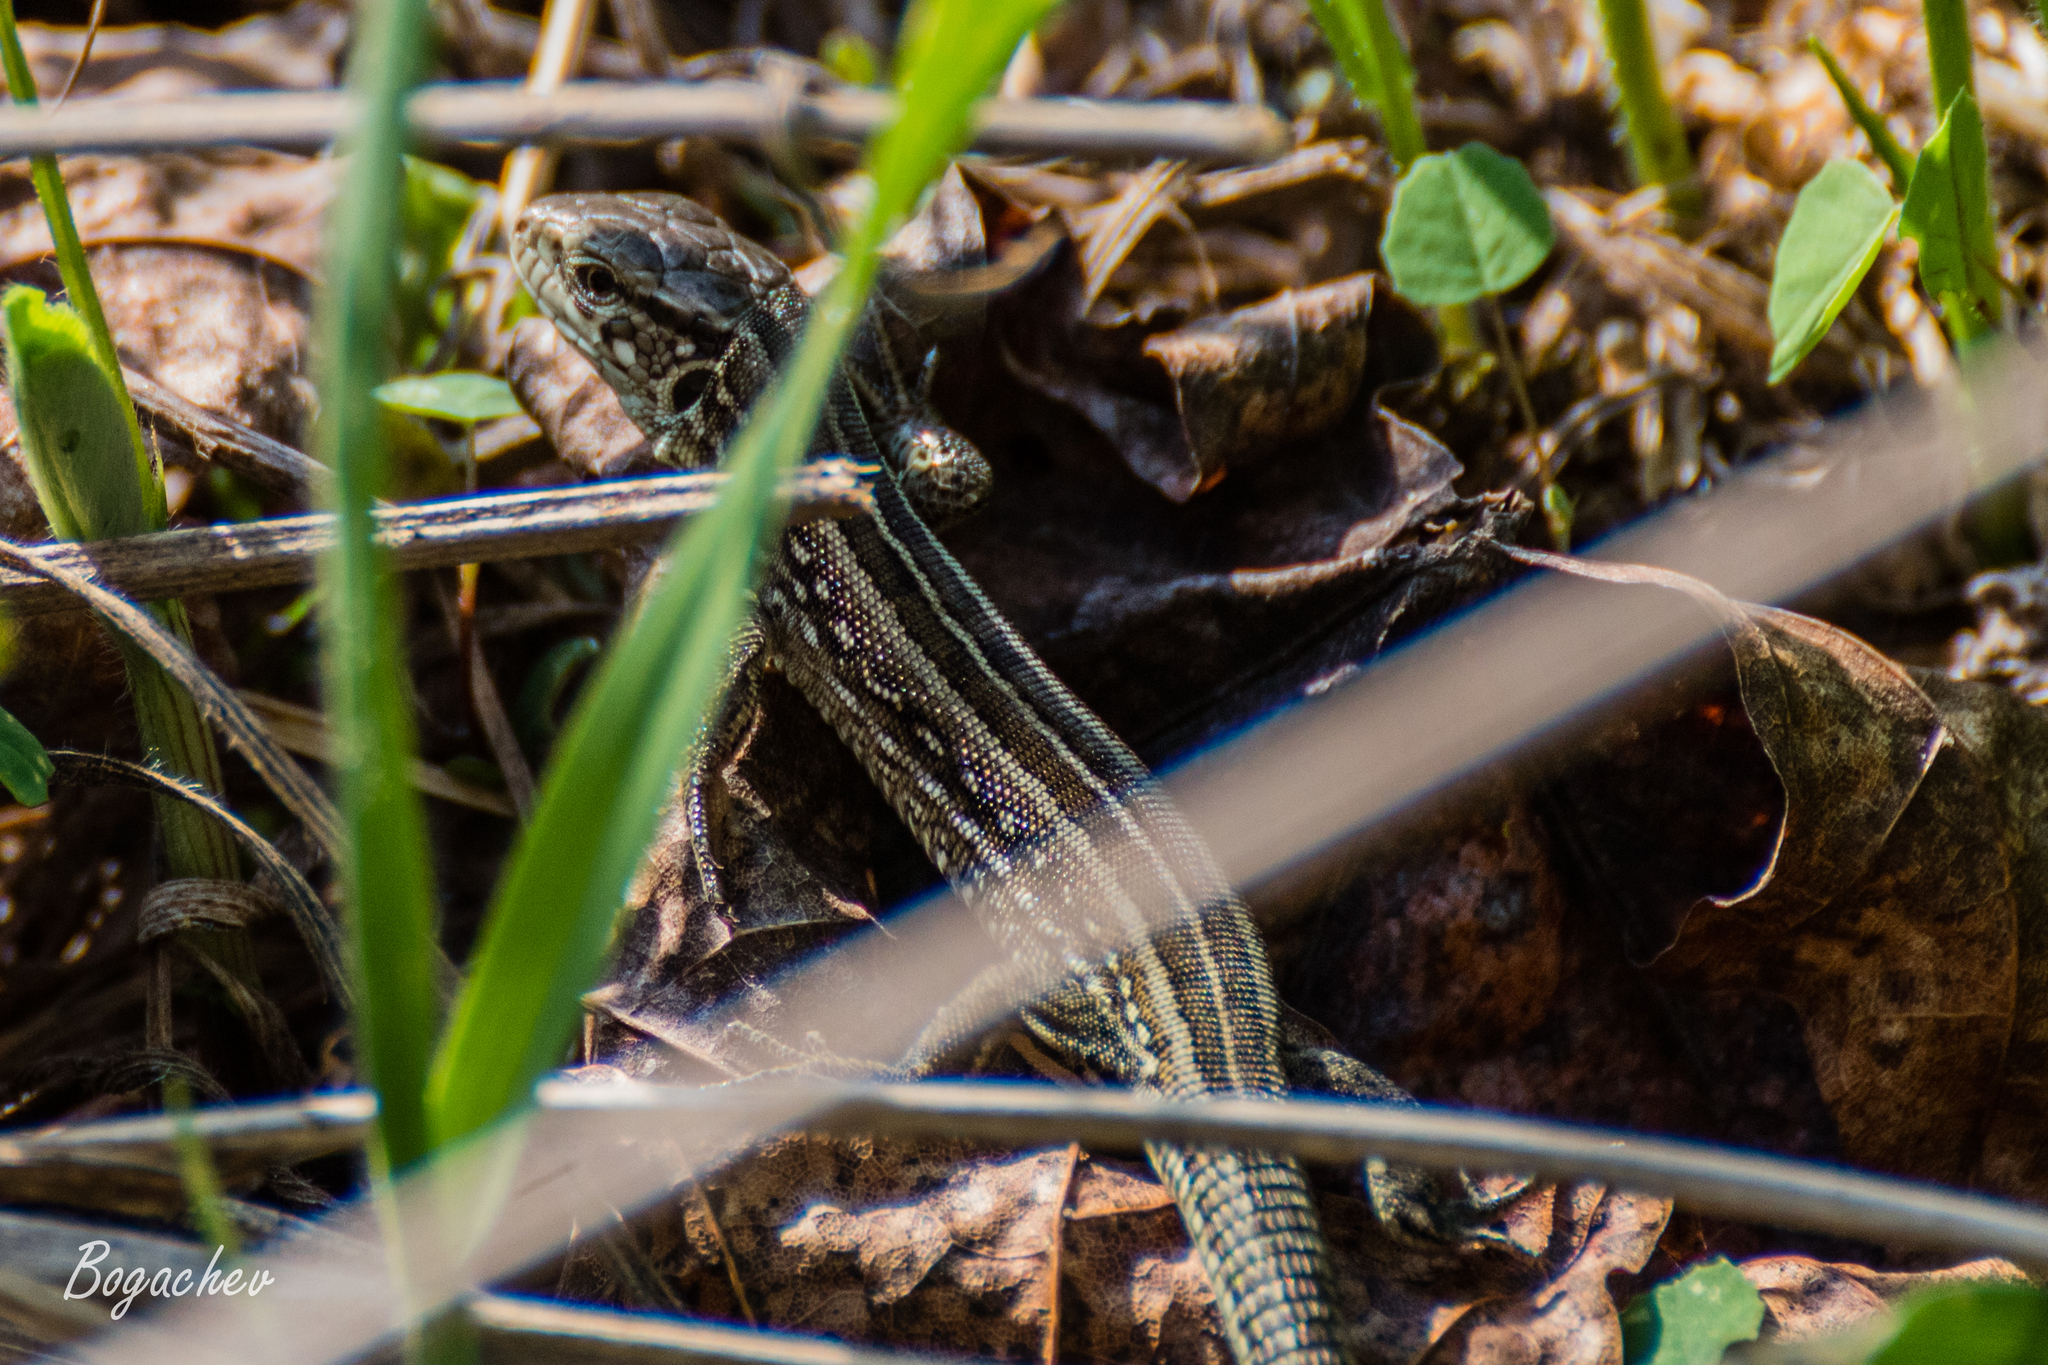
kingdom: Animalia
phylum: Chordata
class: Squamata
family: Lacertidae
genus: Lacerta
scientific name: Lacerta agilis
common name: Sand lizard
